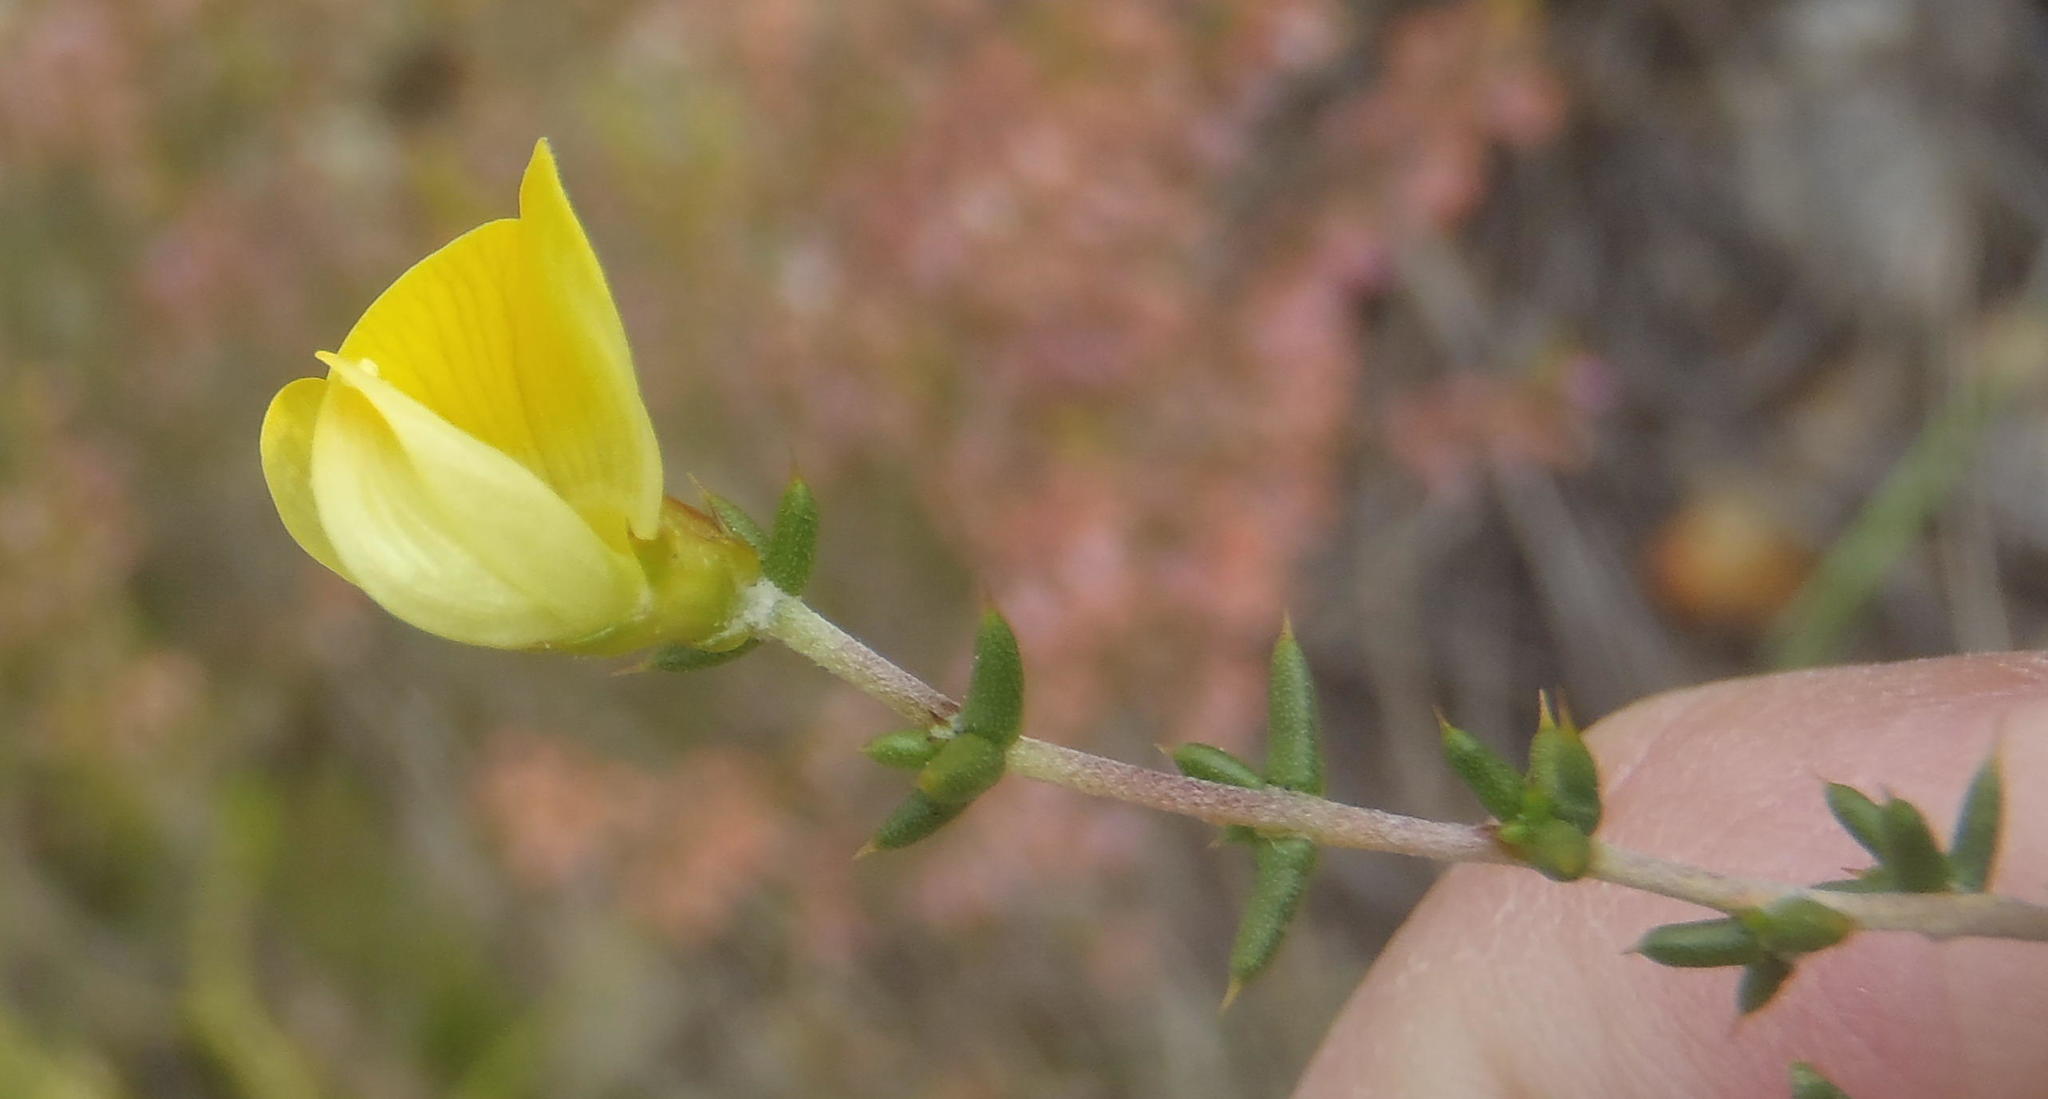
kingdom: Plantae
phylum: Tracheophyta
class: Magnoliopsida
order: Fabales
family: Fabaceae
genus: Aspalathus
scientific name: Aspalathus collina
